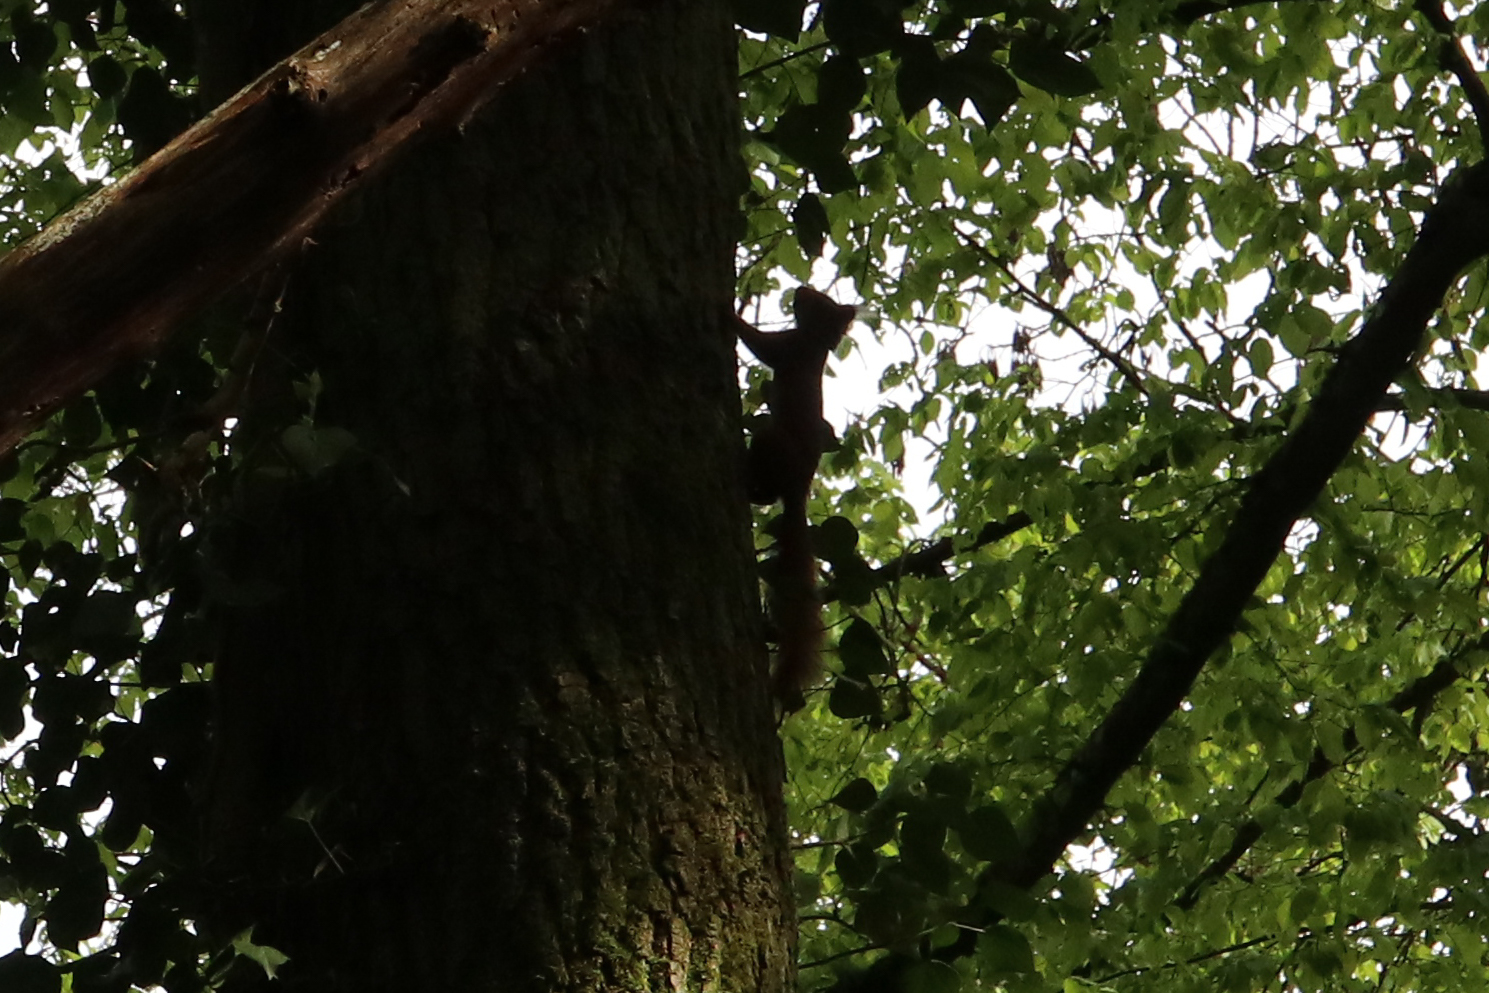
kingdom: Animalia
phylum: Chordata
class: Mammalia
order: Rodentia
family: Sciuridae
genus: Sciurus
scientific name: Sciurus vulgaris
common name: Eurasian red squirrel
